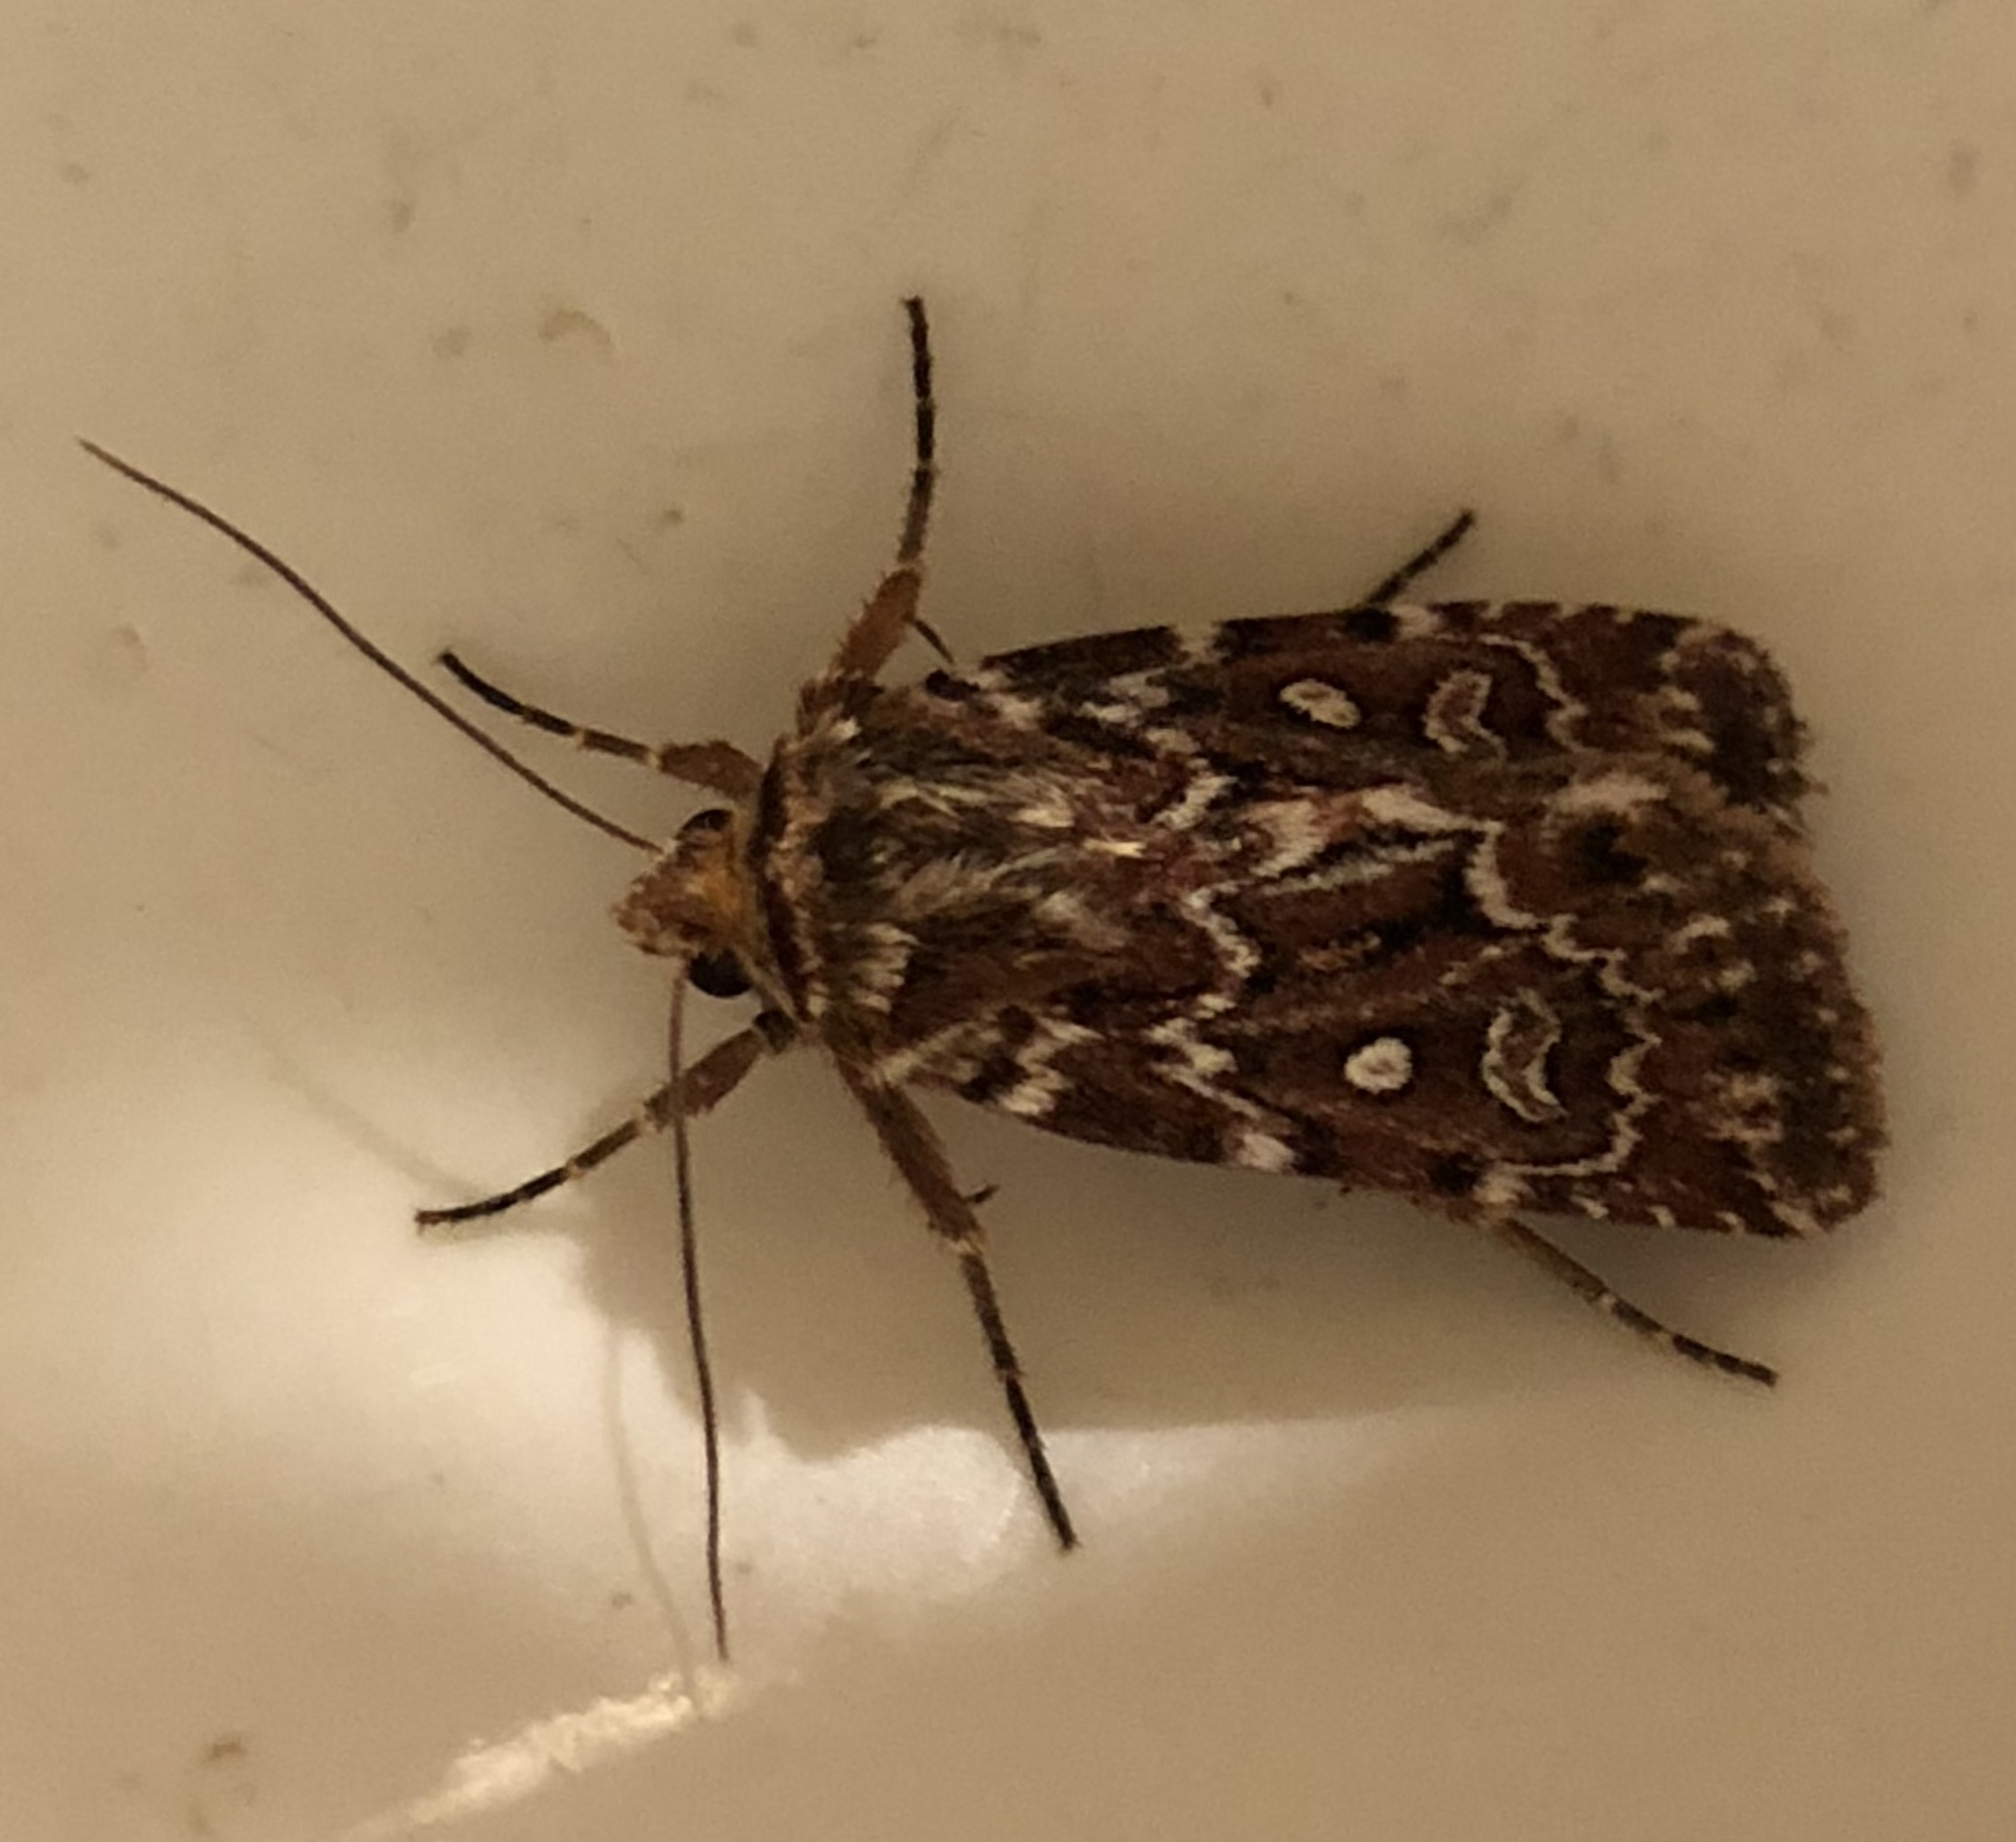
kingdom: Animalia
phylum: Arthropoda
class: Insecta
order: Lepidoptera
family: Noctuidae
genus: Lycophotia
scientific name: Lycophotia porphyrea
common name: True lover's knot
